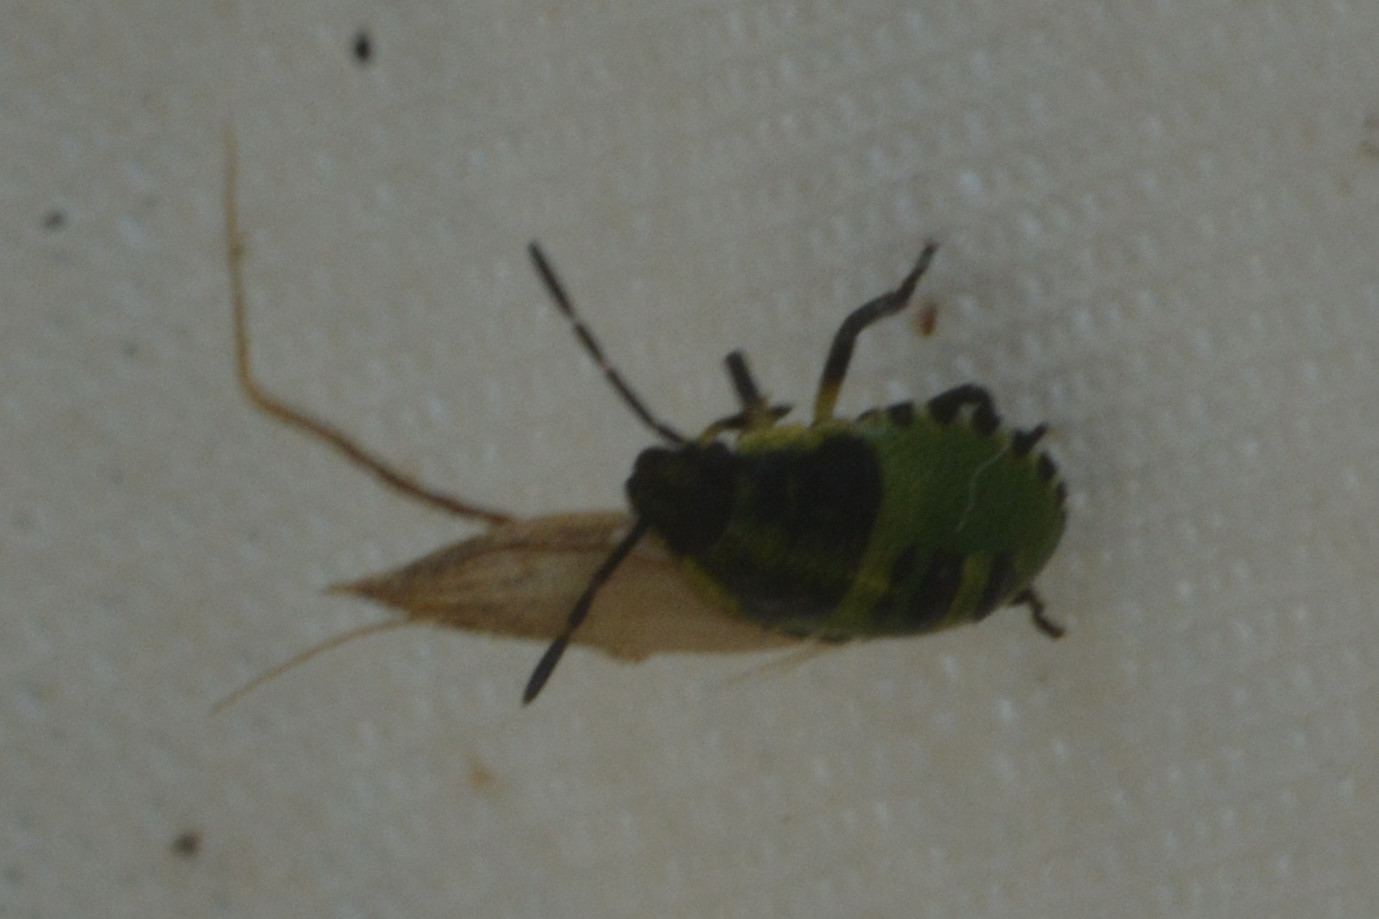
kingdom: Animalia
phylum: Arthropoda
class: Insecta
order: Hemiptera
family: Pentatomidae
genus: Palomena
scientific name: Palomena prasina
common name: Green shieldbug
